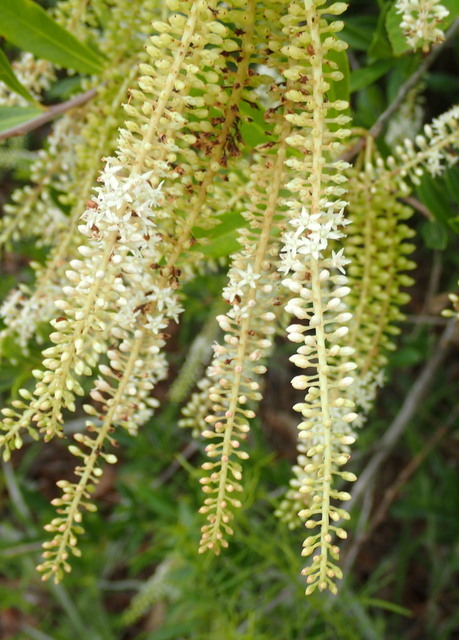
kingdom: Plantae
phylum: Tracheophyta
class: Magnoliopsida
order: Ericales
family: Cyrillaceae
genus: Cyrilla
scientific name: Cyrilla racemiflora
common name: Black titi
